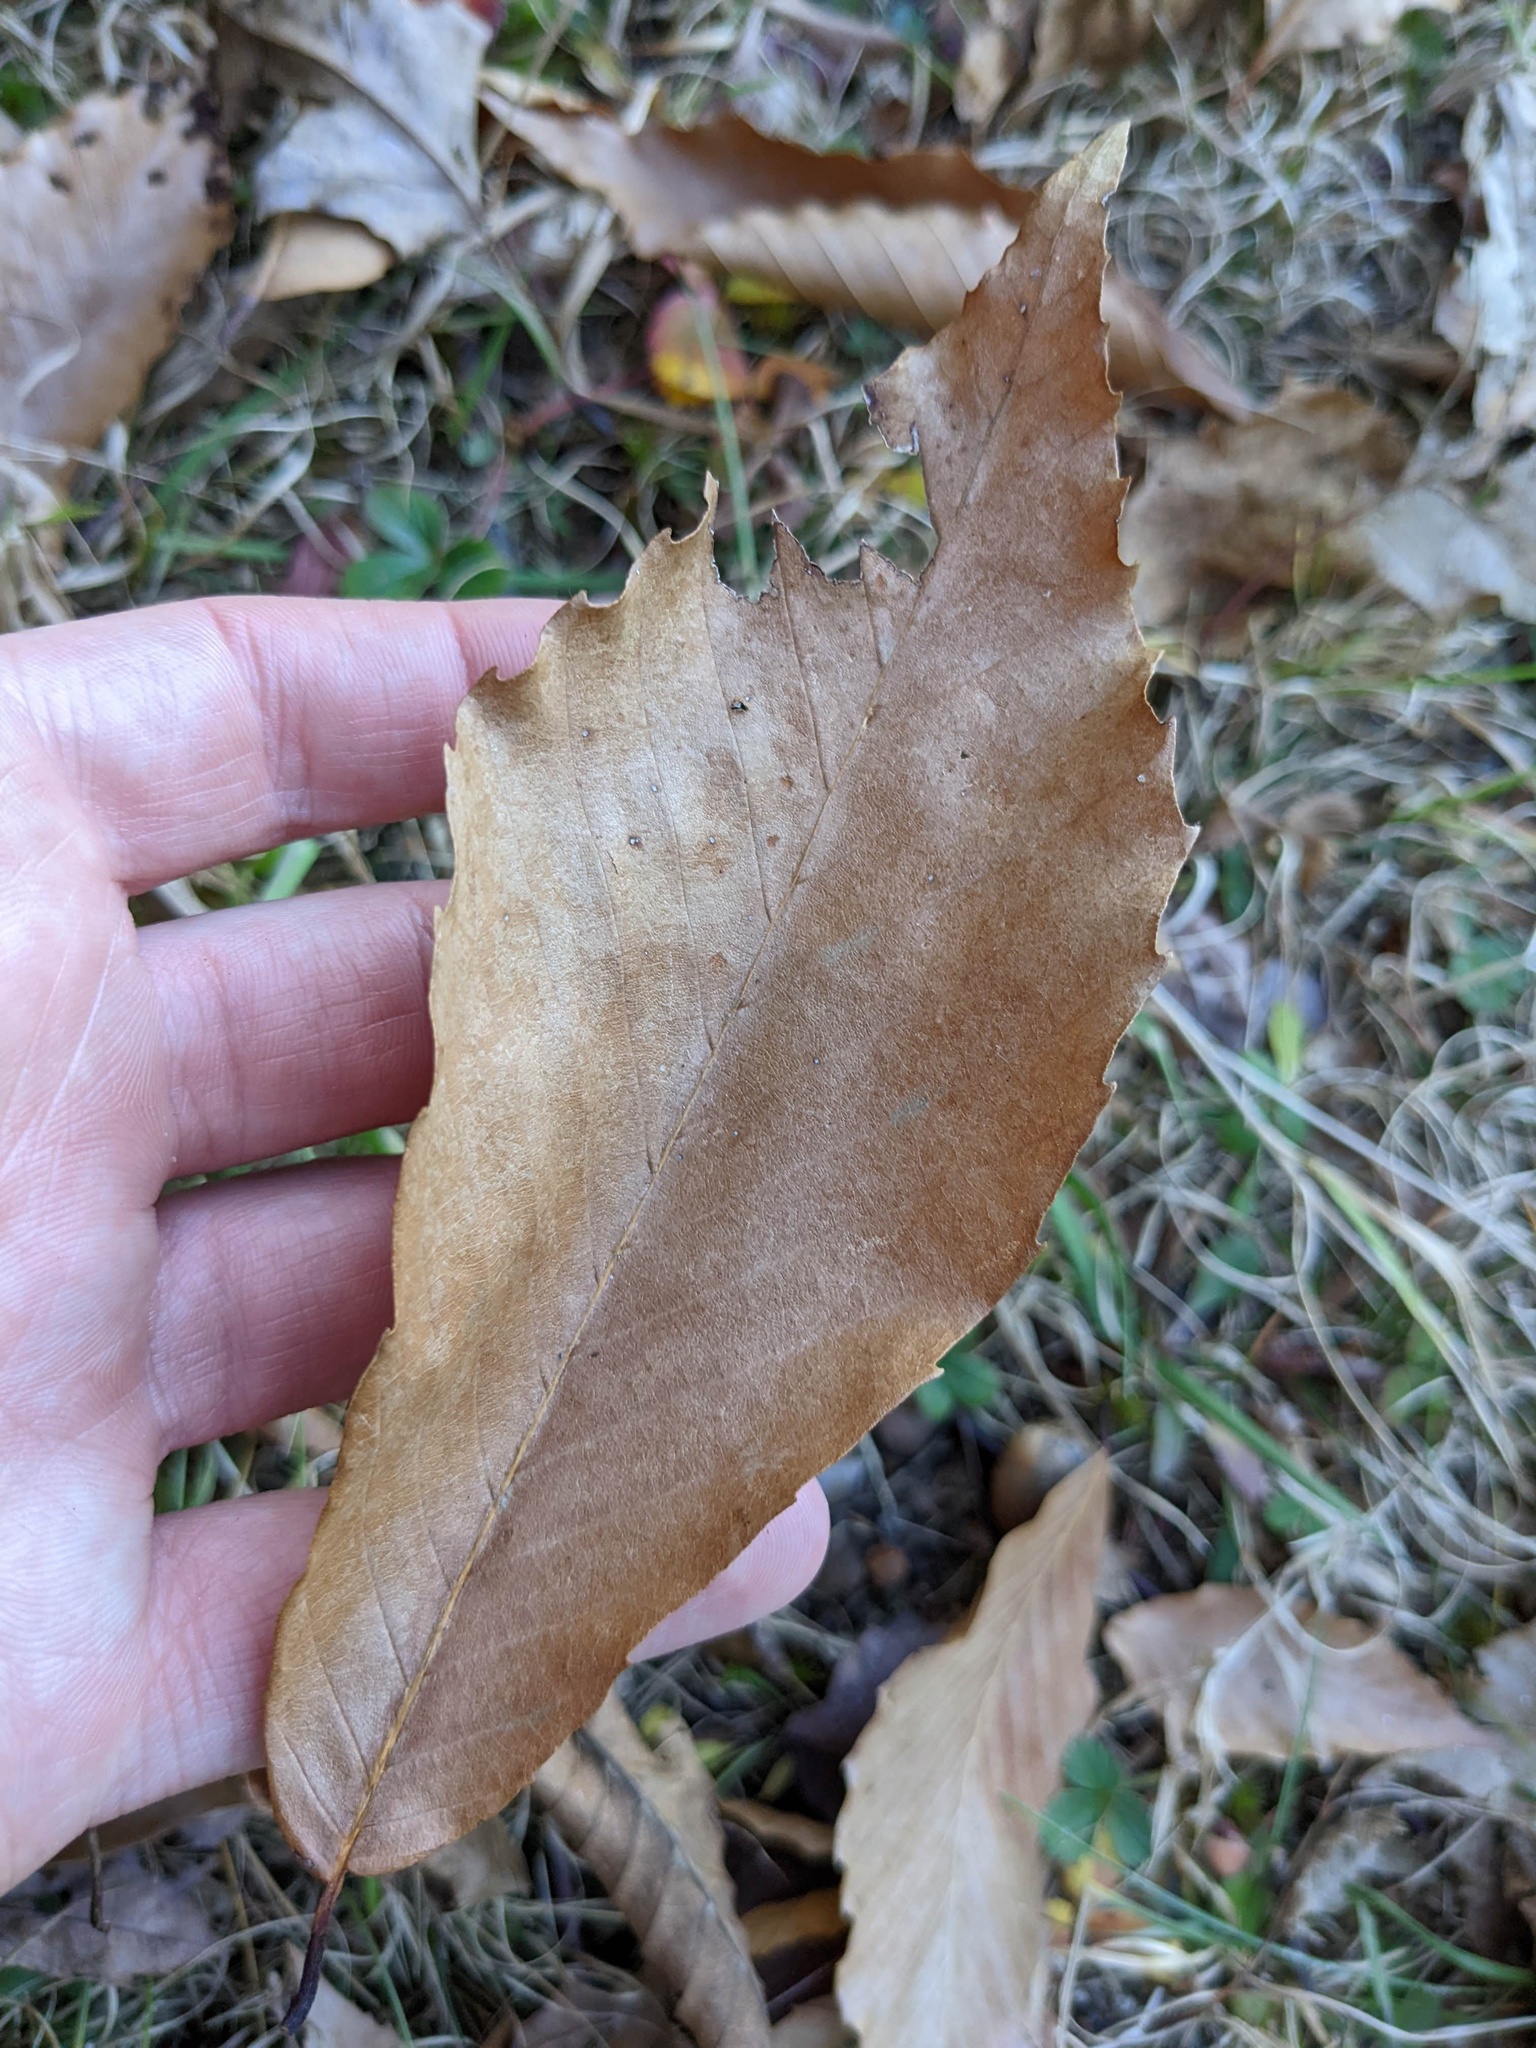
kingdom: Plantae
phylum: Tracheophyta
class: Magnoliopsida
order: Fagales
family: Fagaceae
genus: Fagus
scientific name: Fagus grandifolia
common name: American beech
